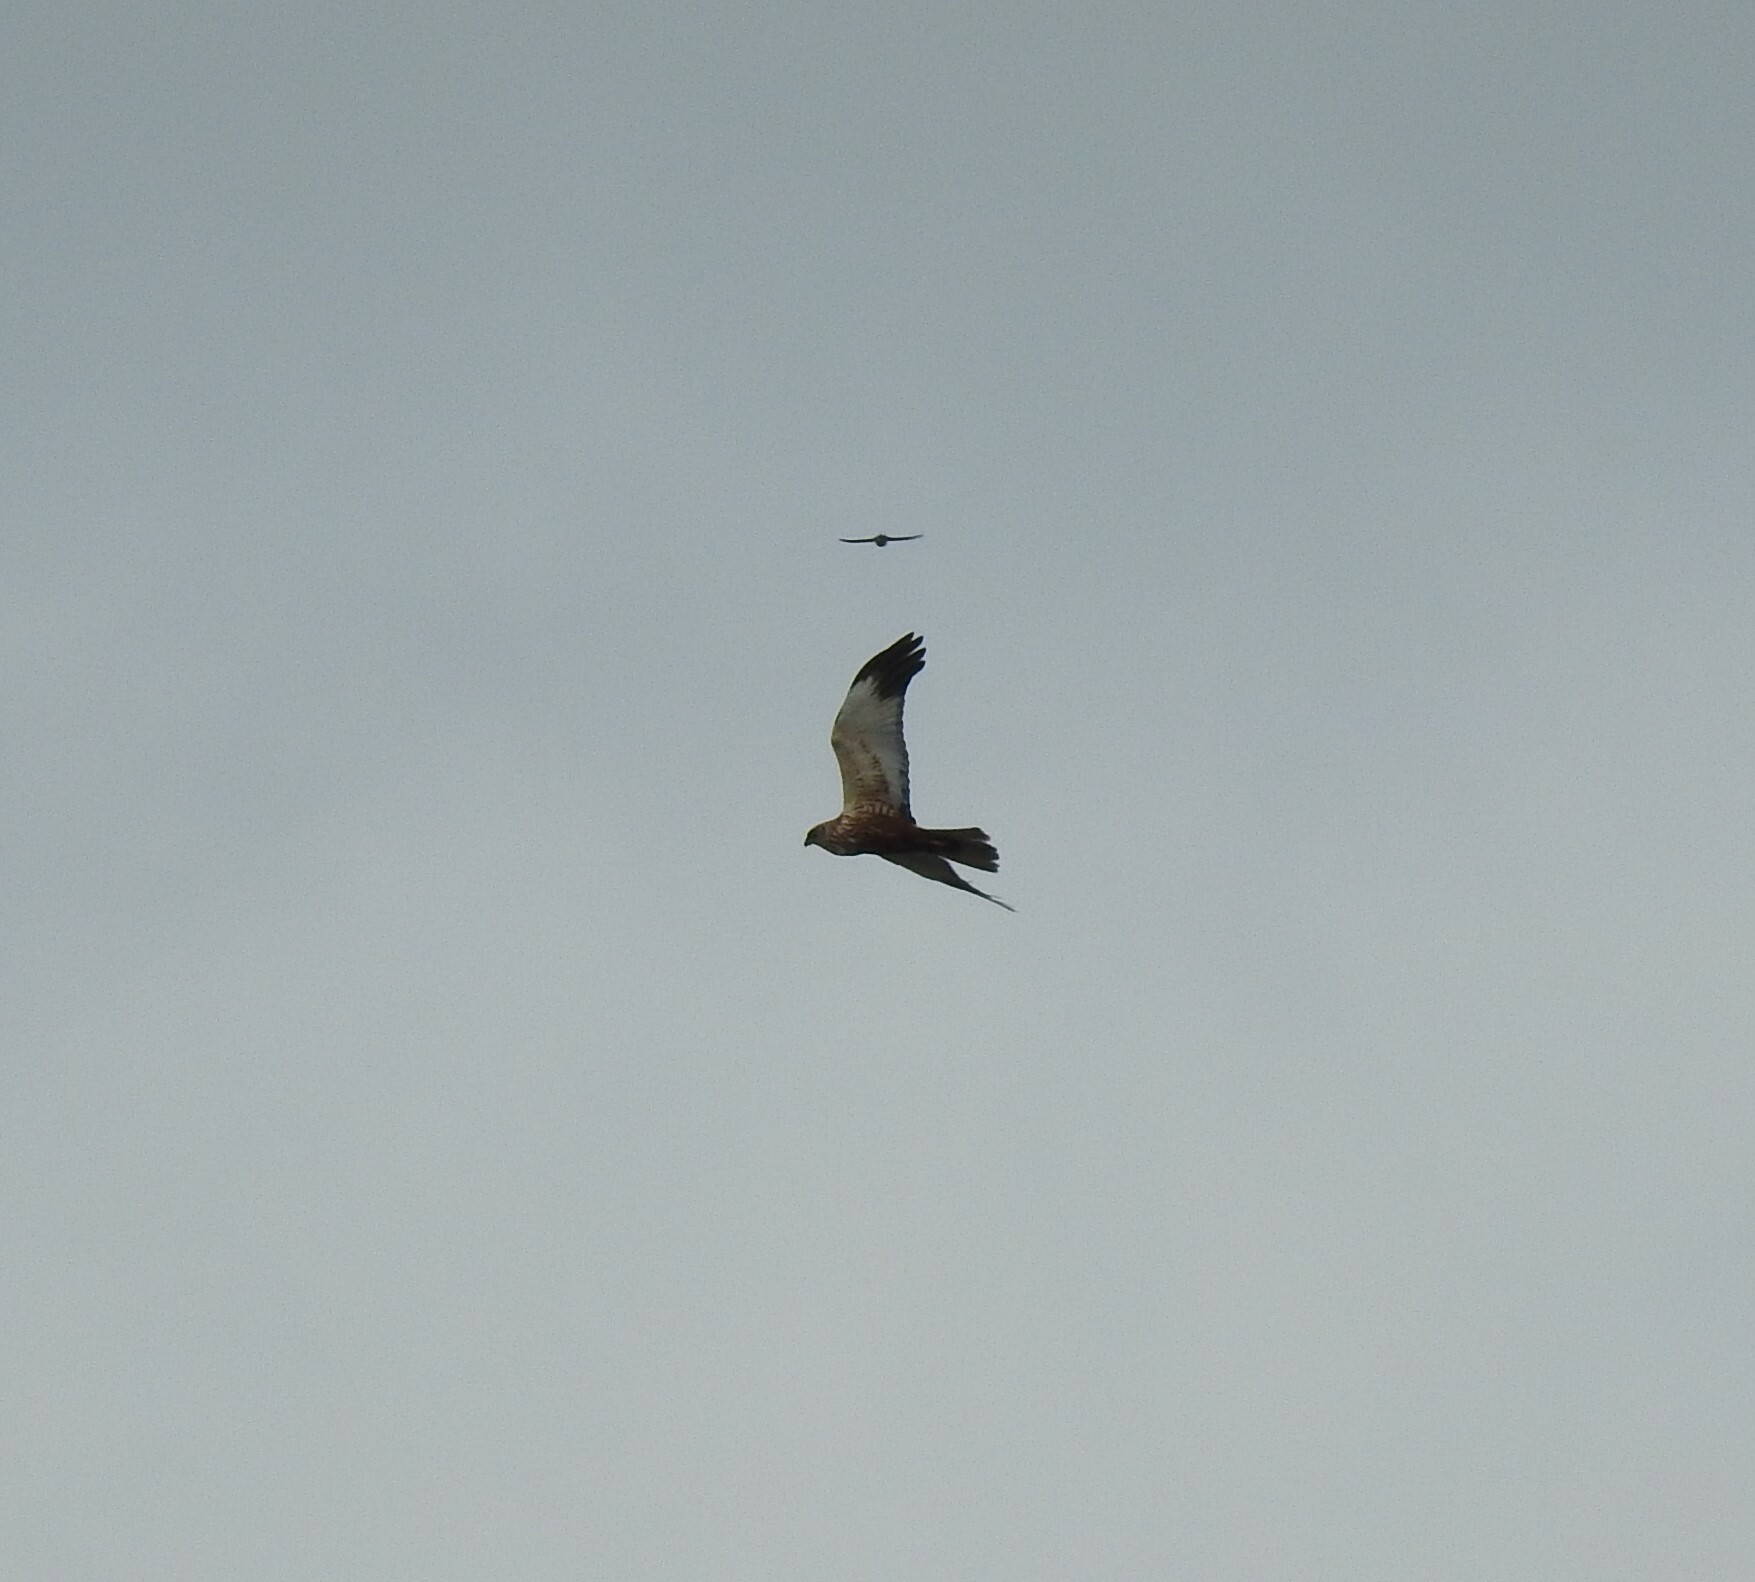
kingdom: Animalia
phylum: Chordata
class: Aves
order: Accipitriformes
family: Accipitridae
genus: Circus
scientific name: Circus aeruginosus
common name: Western marsh harrier
